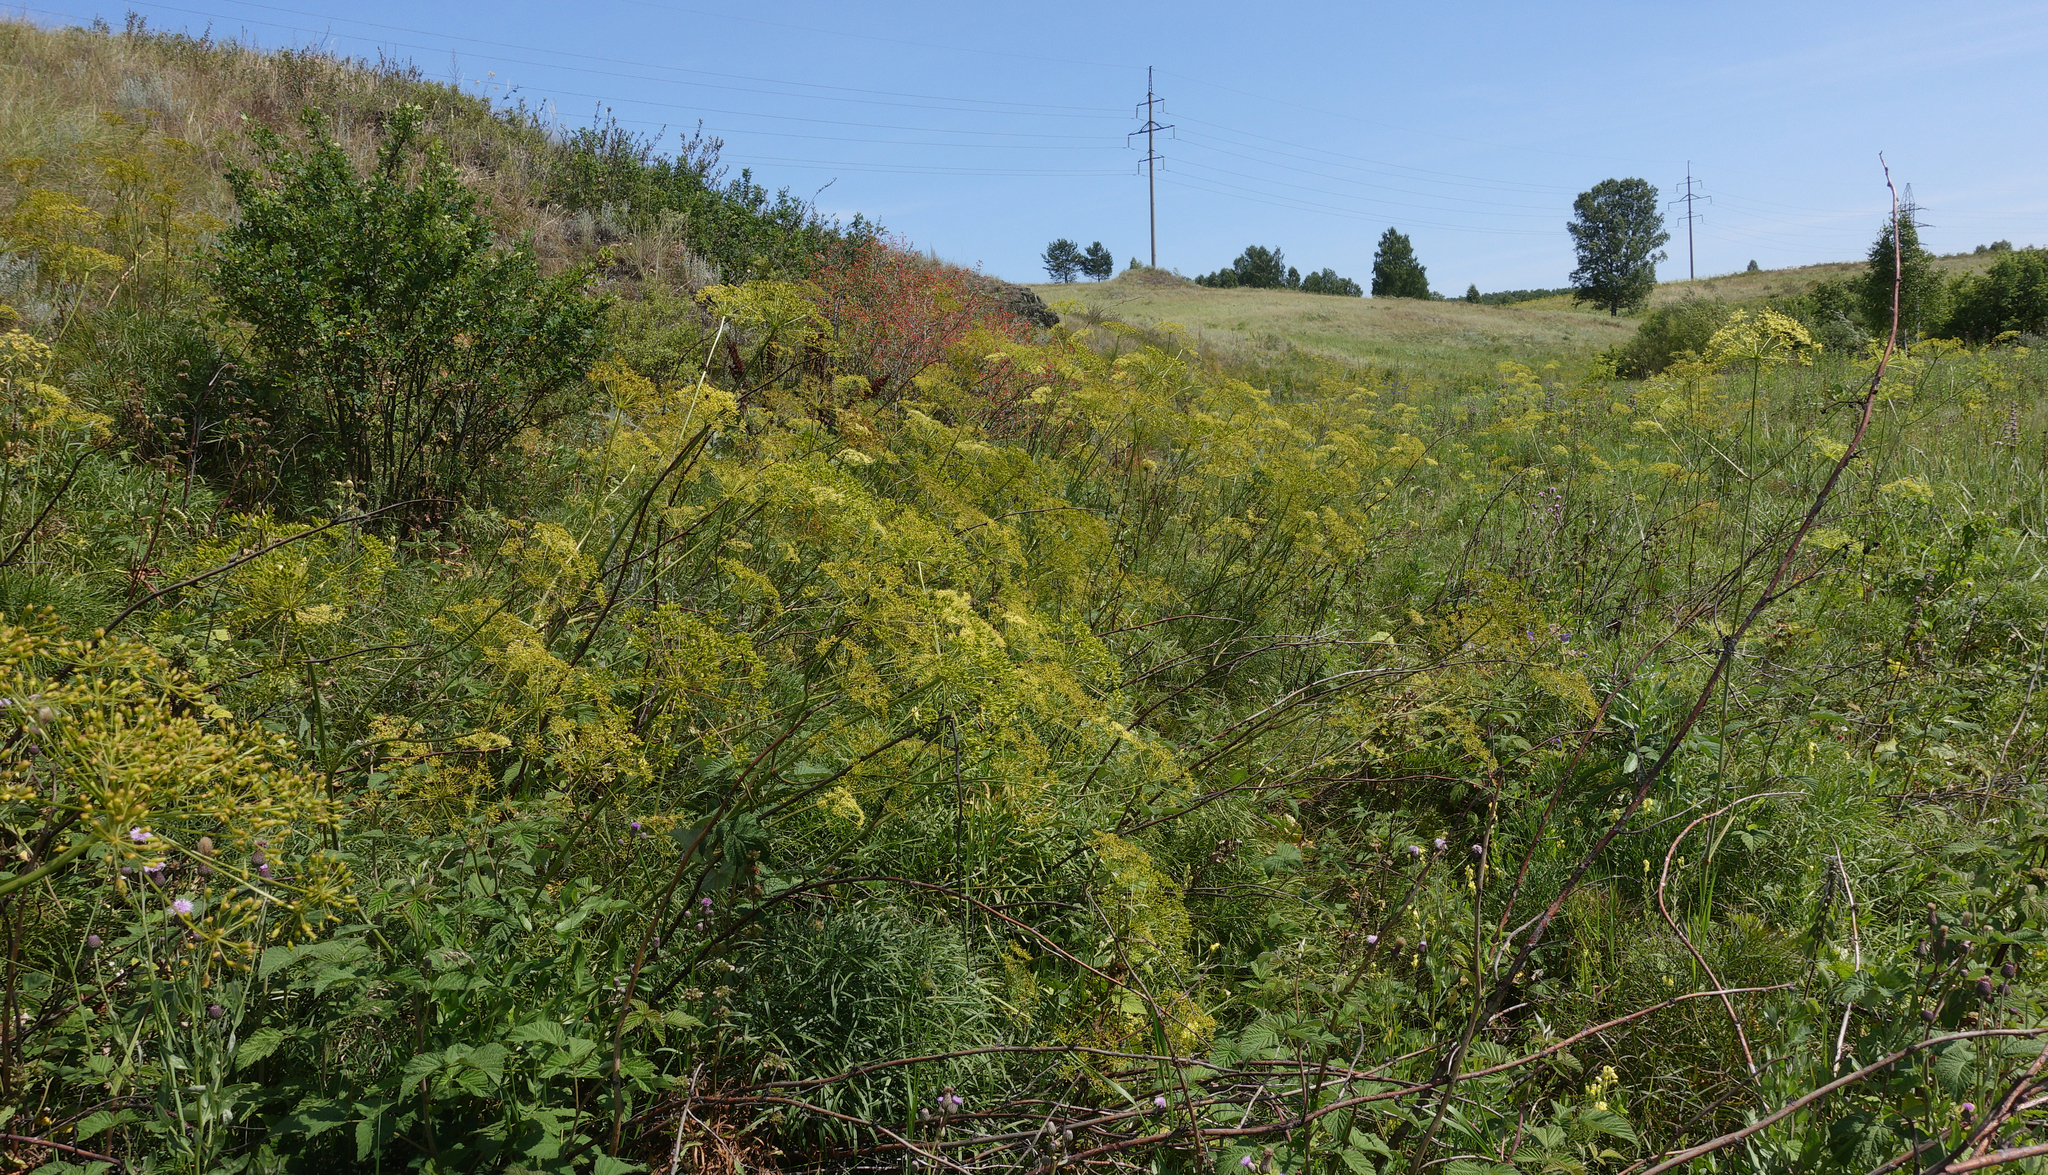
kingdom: Plantae
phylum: Tracheophyta
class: Magnoliopsida
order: Apiales
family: Apiaceae
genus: Peucedanum
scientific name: Peucedanum morisonii
